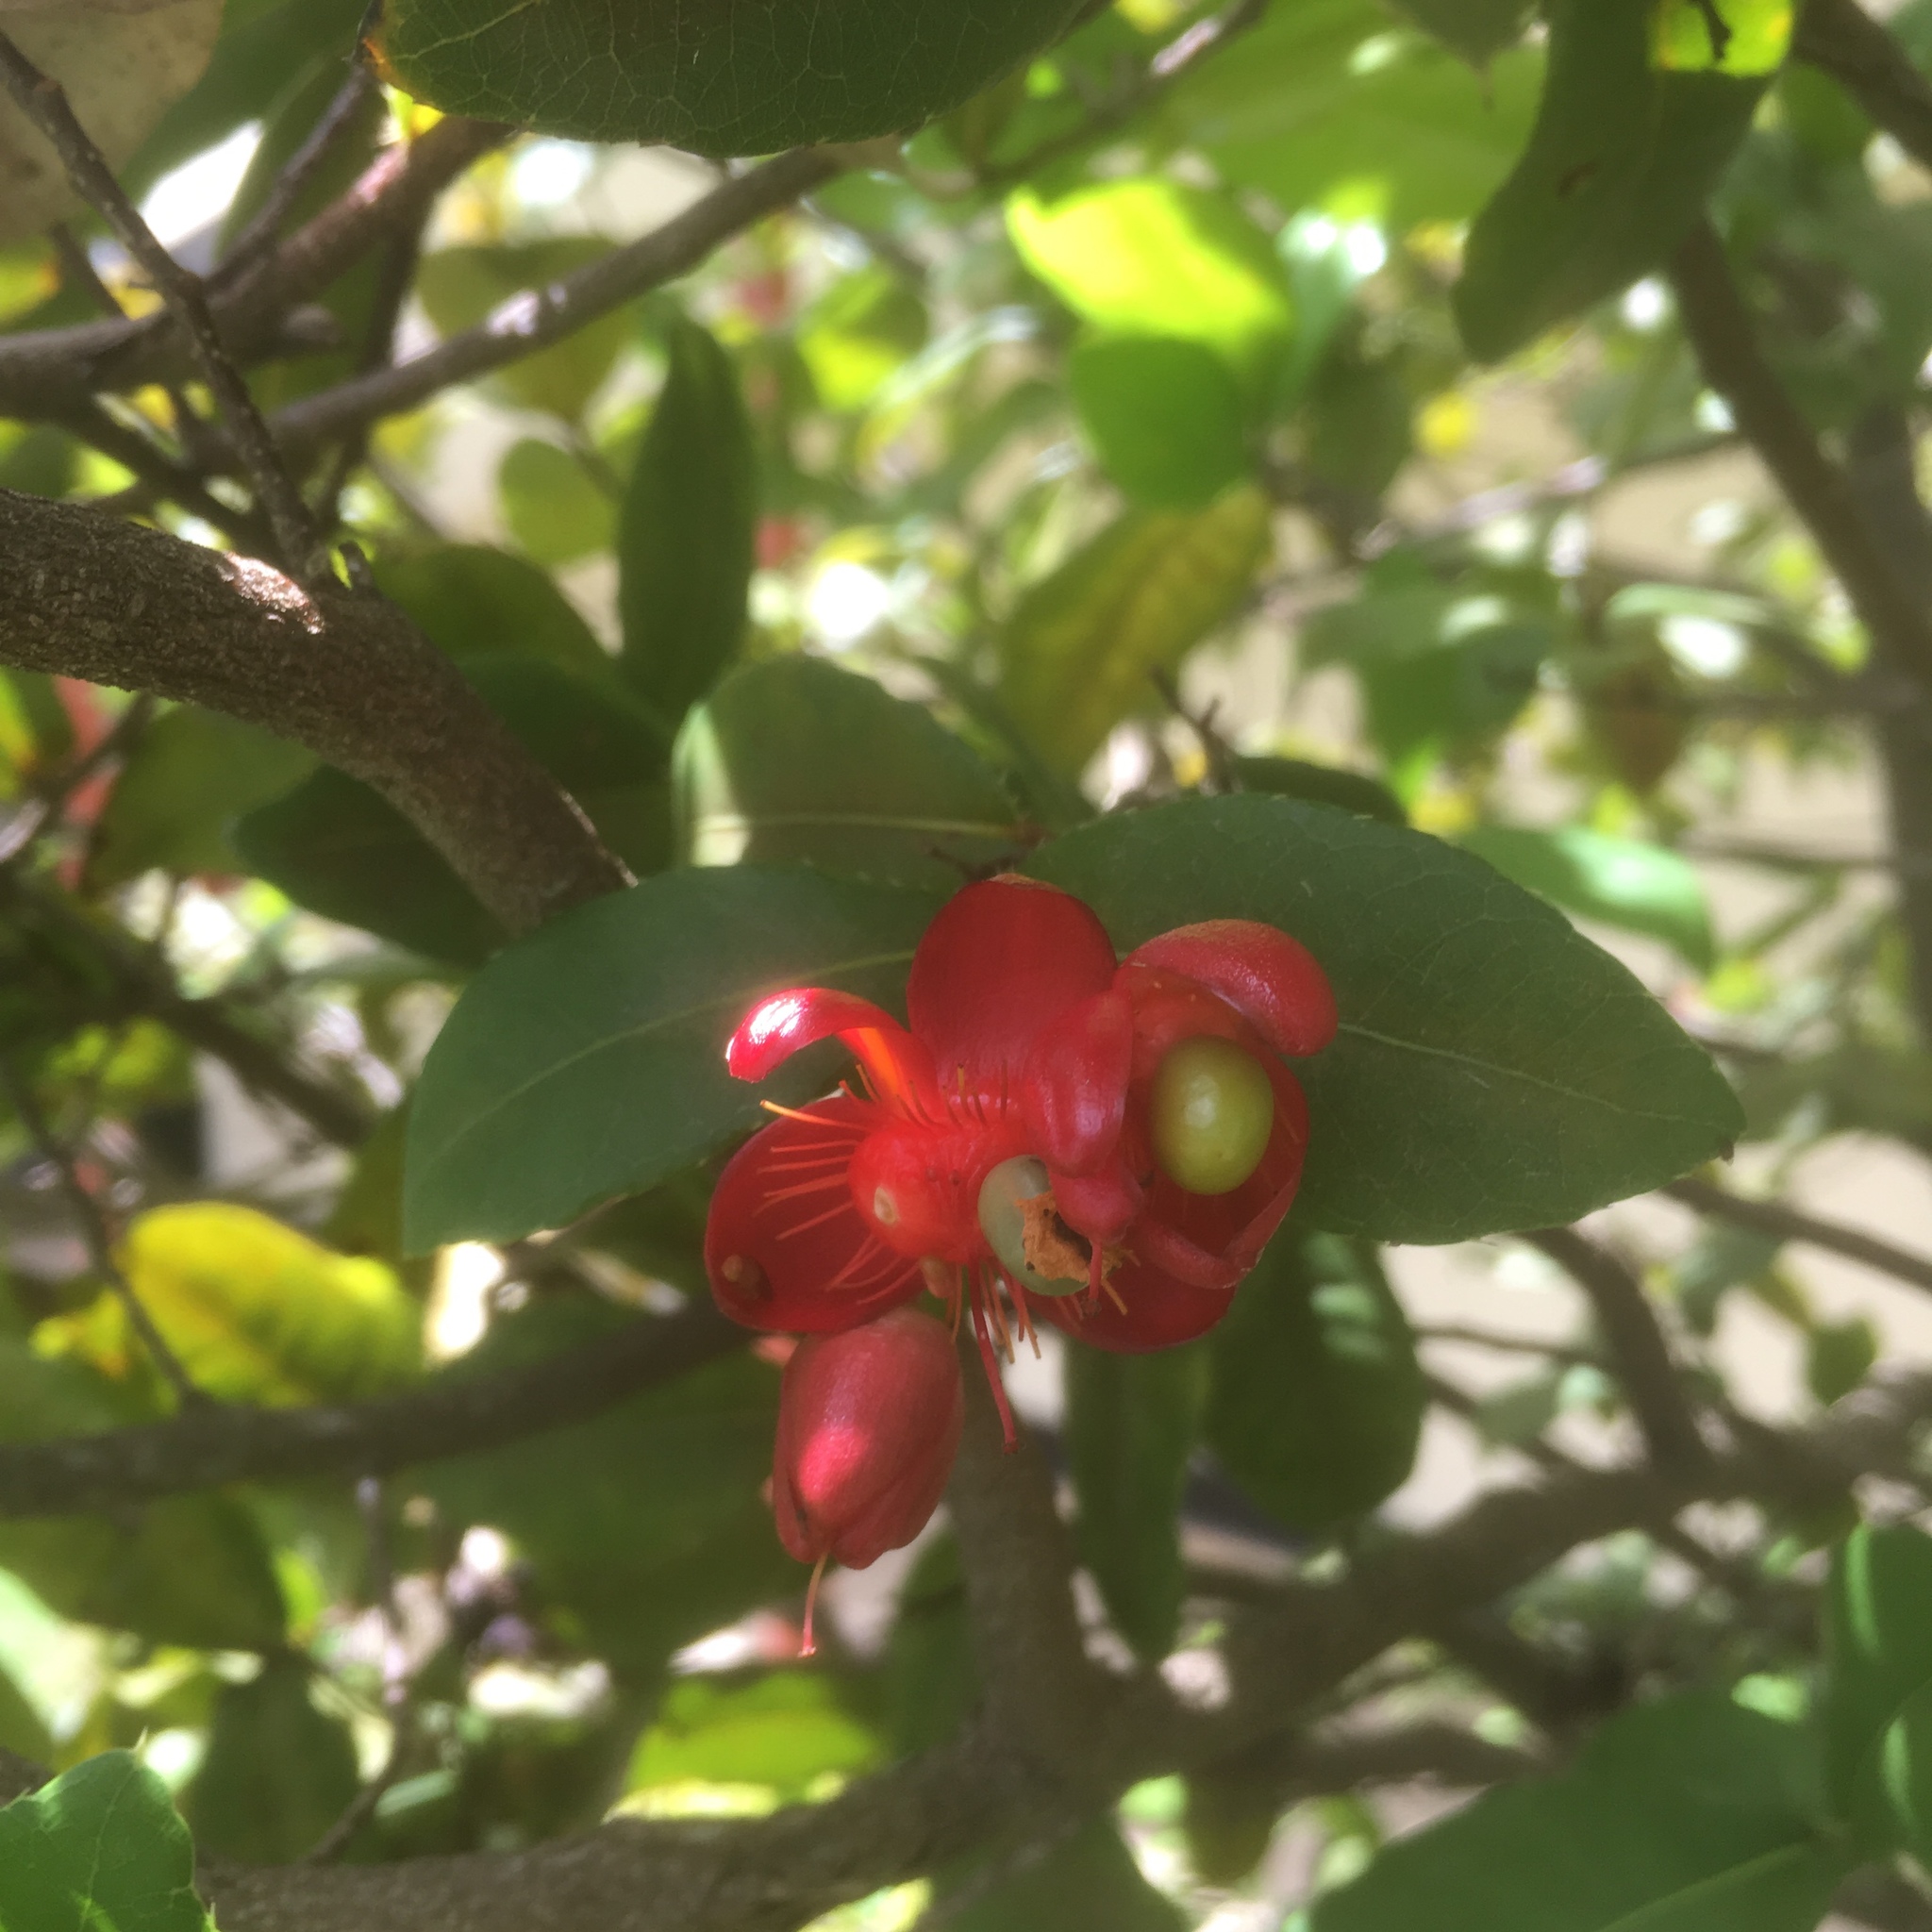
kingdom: Plantae
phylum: Tracheophyta
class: Magnoliopsida
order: Malpighiales
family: Ochnaceae
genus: Ochna
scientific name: Ochna thomasiana
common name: Thomas' bird's-eye bush
